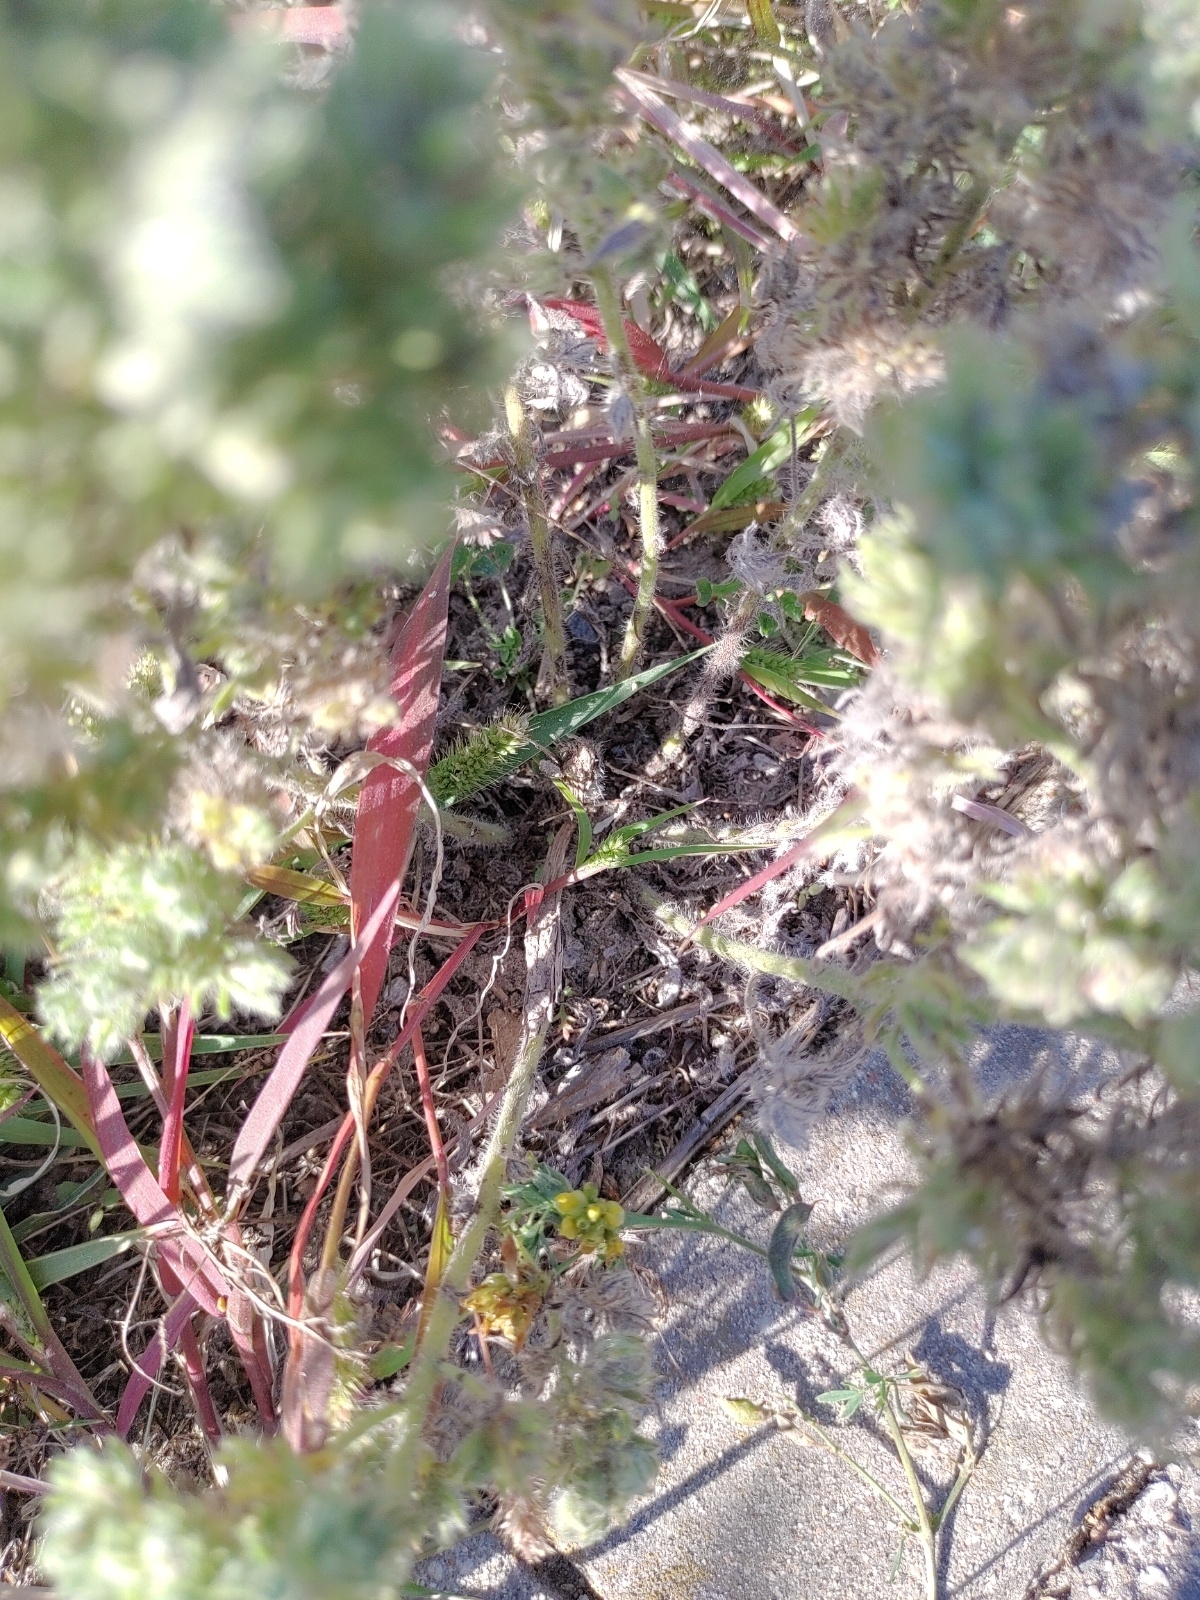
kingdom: Plantae
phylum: Tracheophyta
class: Magnoliopsida
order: Boraginales
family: Boraginaceae
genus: Echium
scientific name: Echium vulgare
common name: Common viper's bugloss
